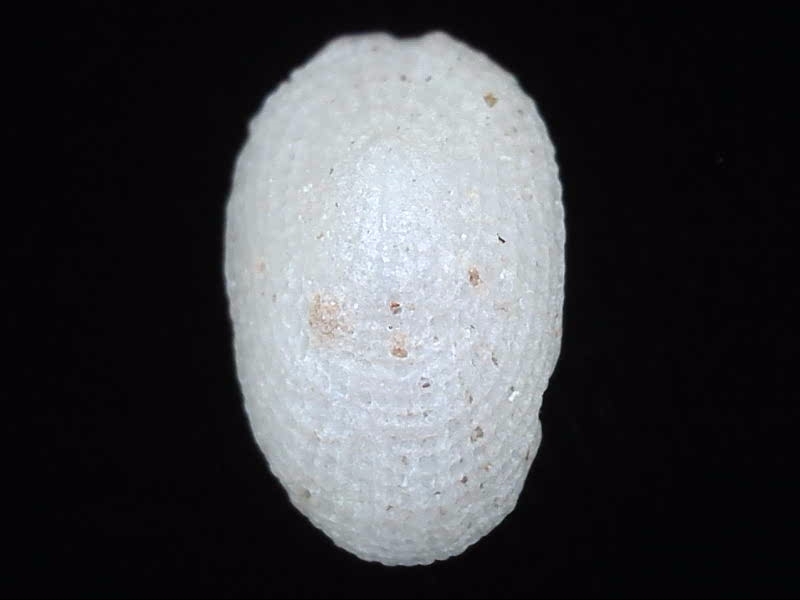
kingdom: Animalia
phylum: Mollusca
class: Gastropoda
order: Lepetellida
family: Fissurellidae
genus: Tugali
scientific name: Tugali suteri
